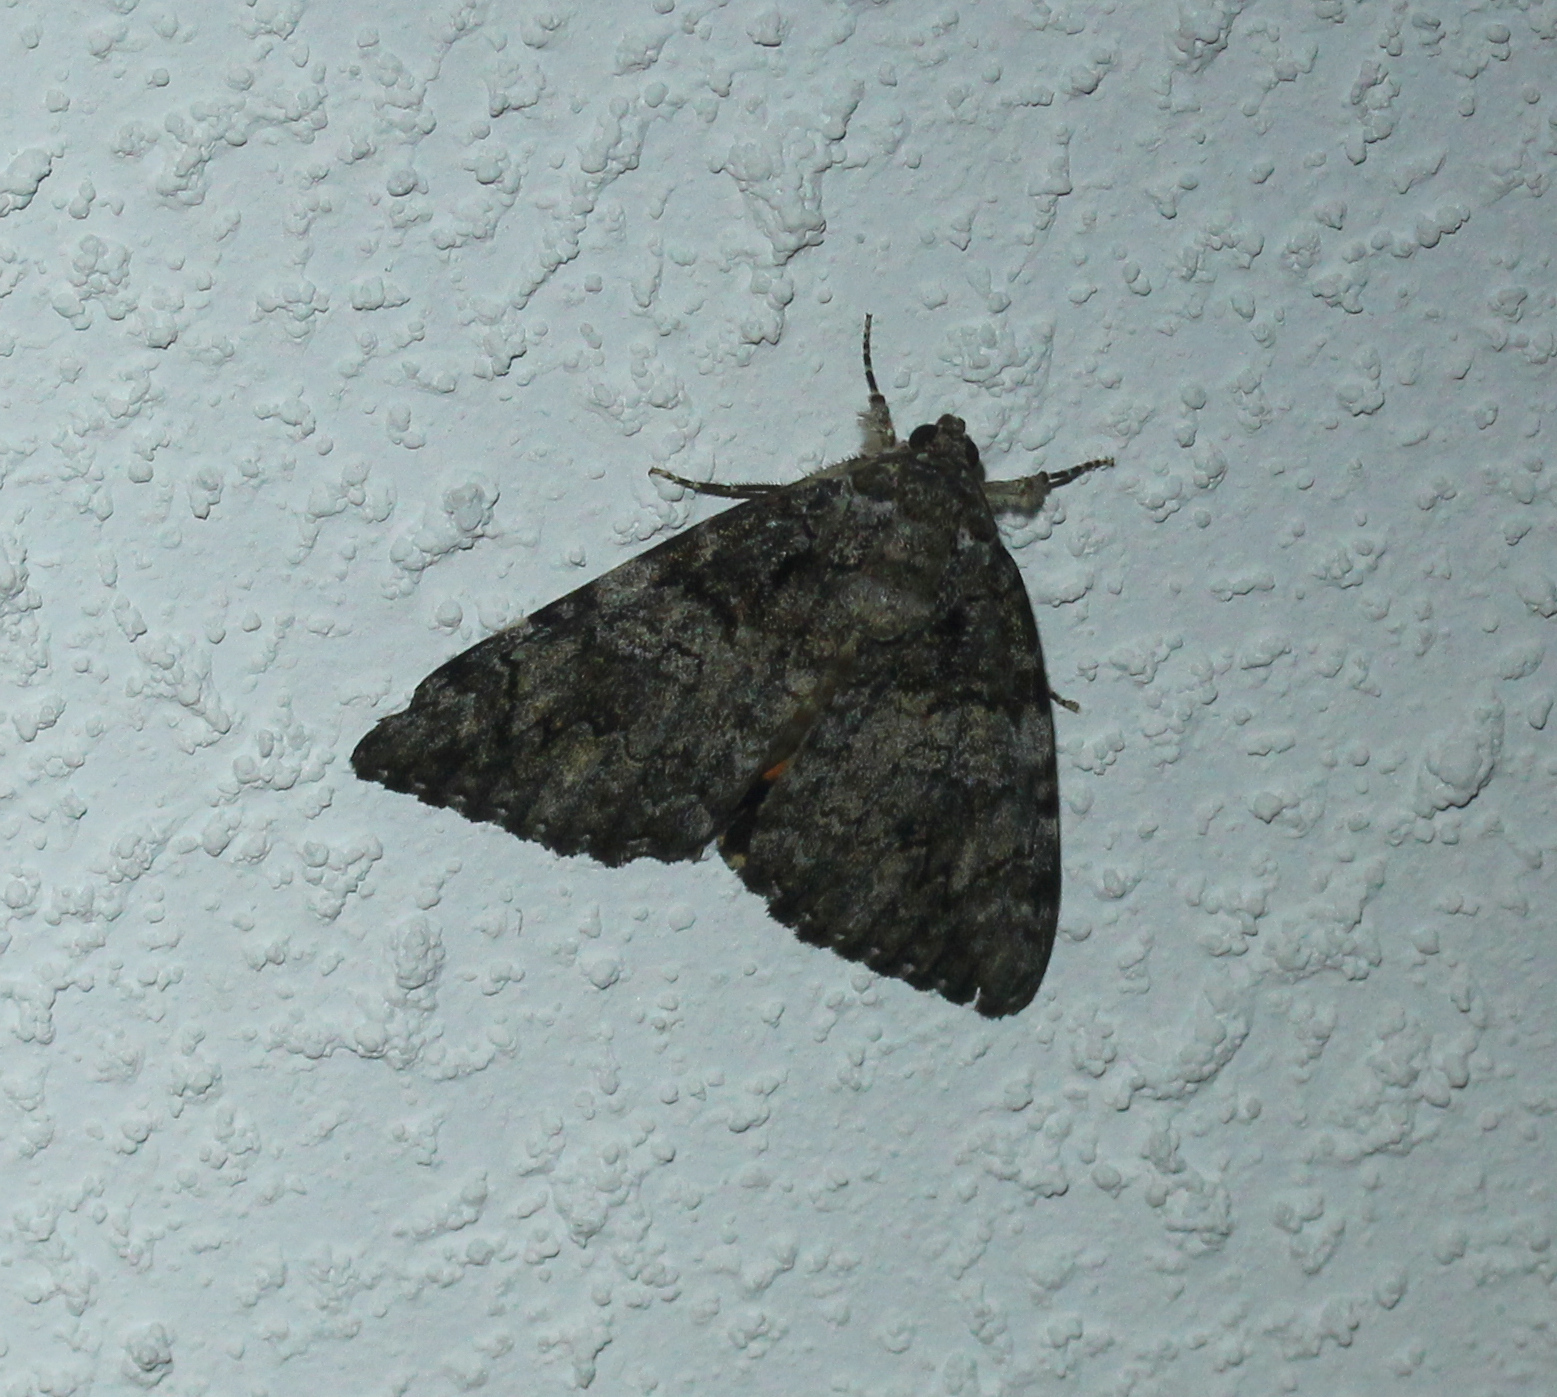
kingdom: Animalia
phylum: Arthropoda
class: Insecta
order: Lepidoptera
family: Erebidae
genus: Catocala
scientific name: Catocala ilia
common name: Ilia underwing
